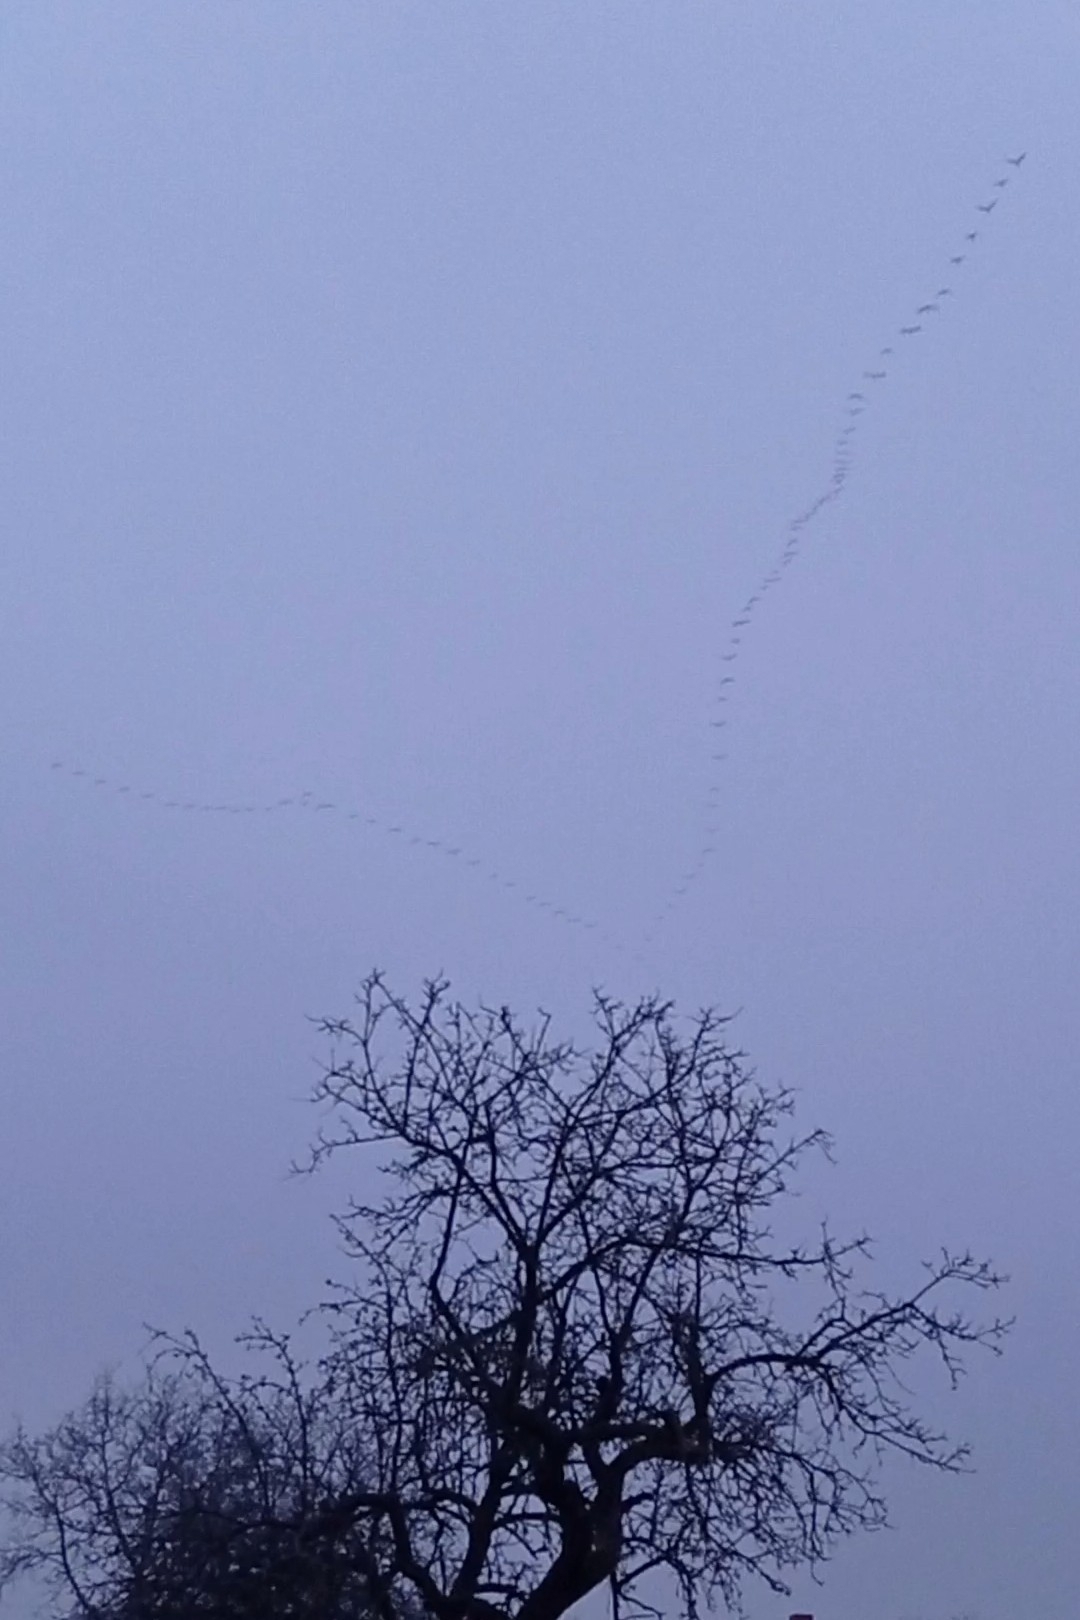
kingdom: Animalia
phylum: Chordata
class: Aves
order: Gruiformes
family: Gruidae
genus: Grus
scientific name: Grus grus
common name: Common crane
